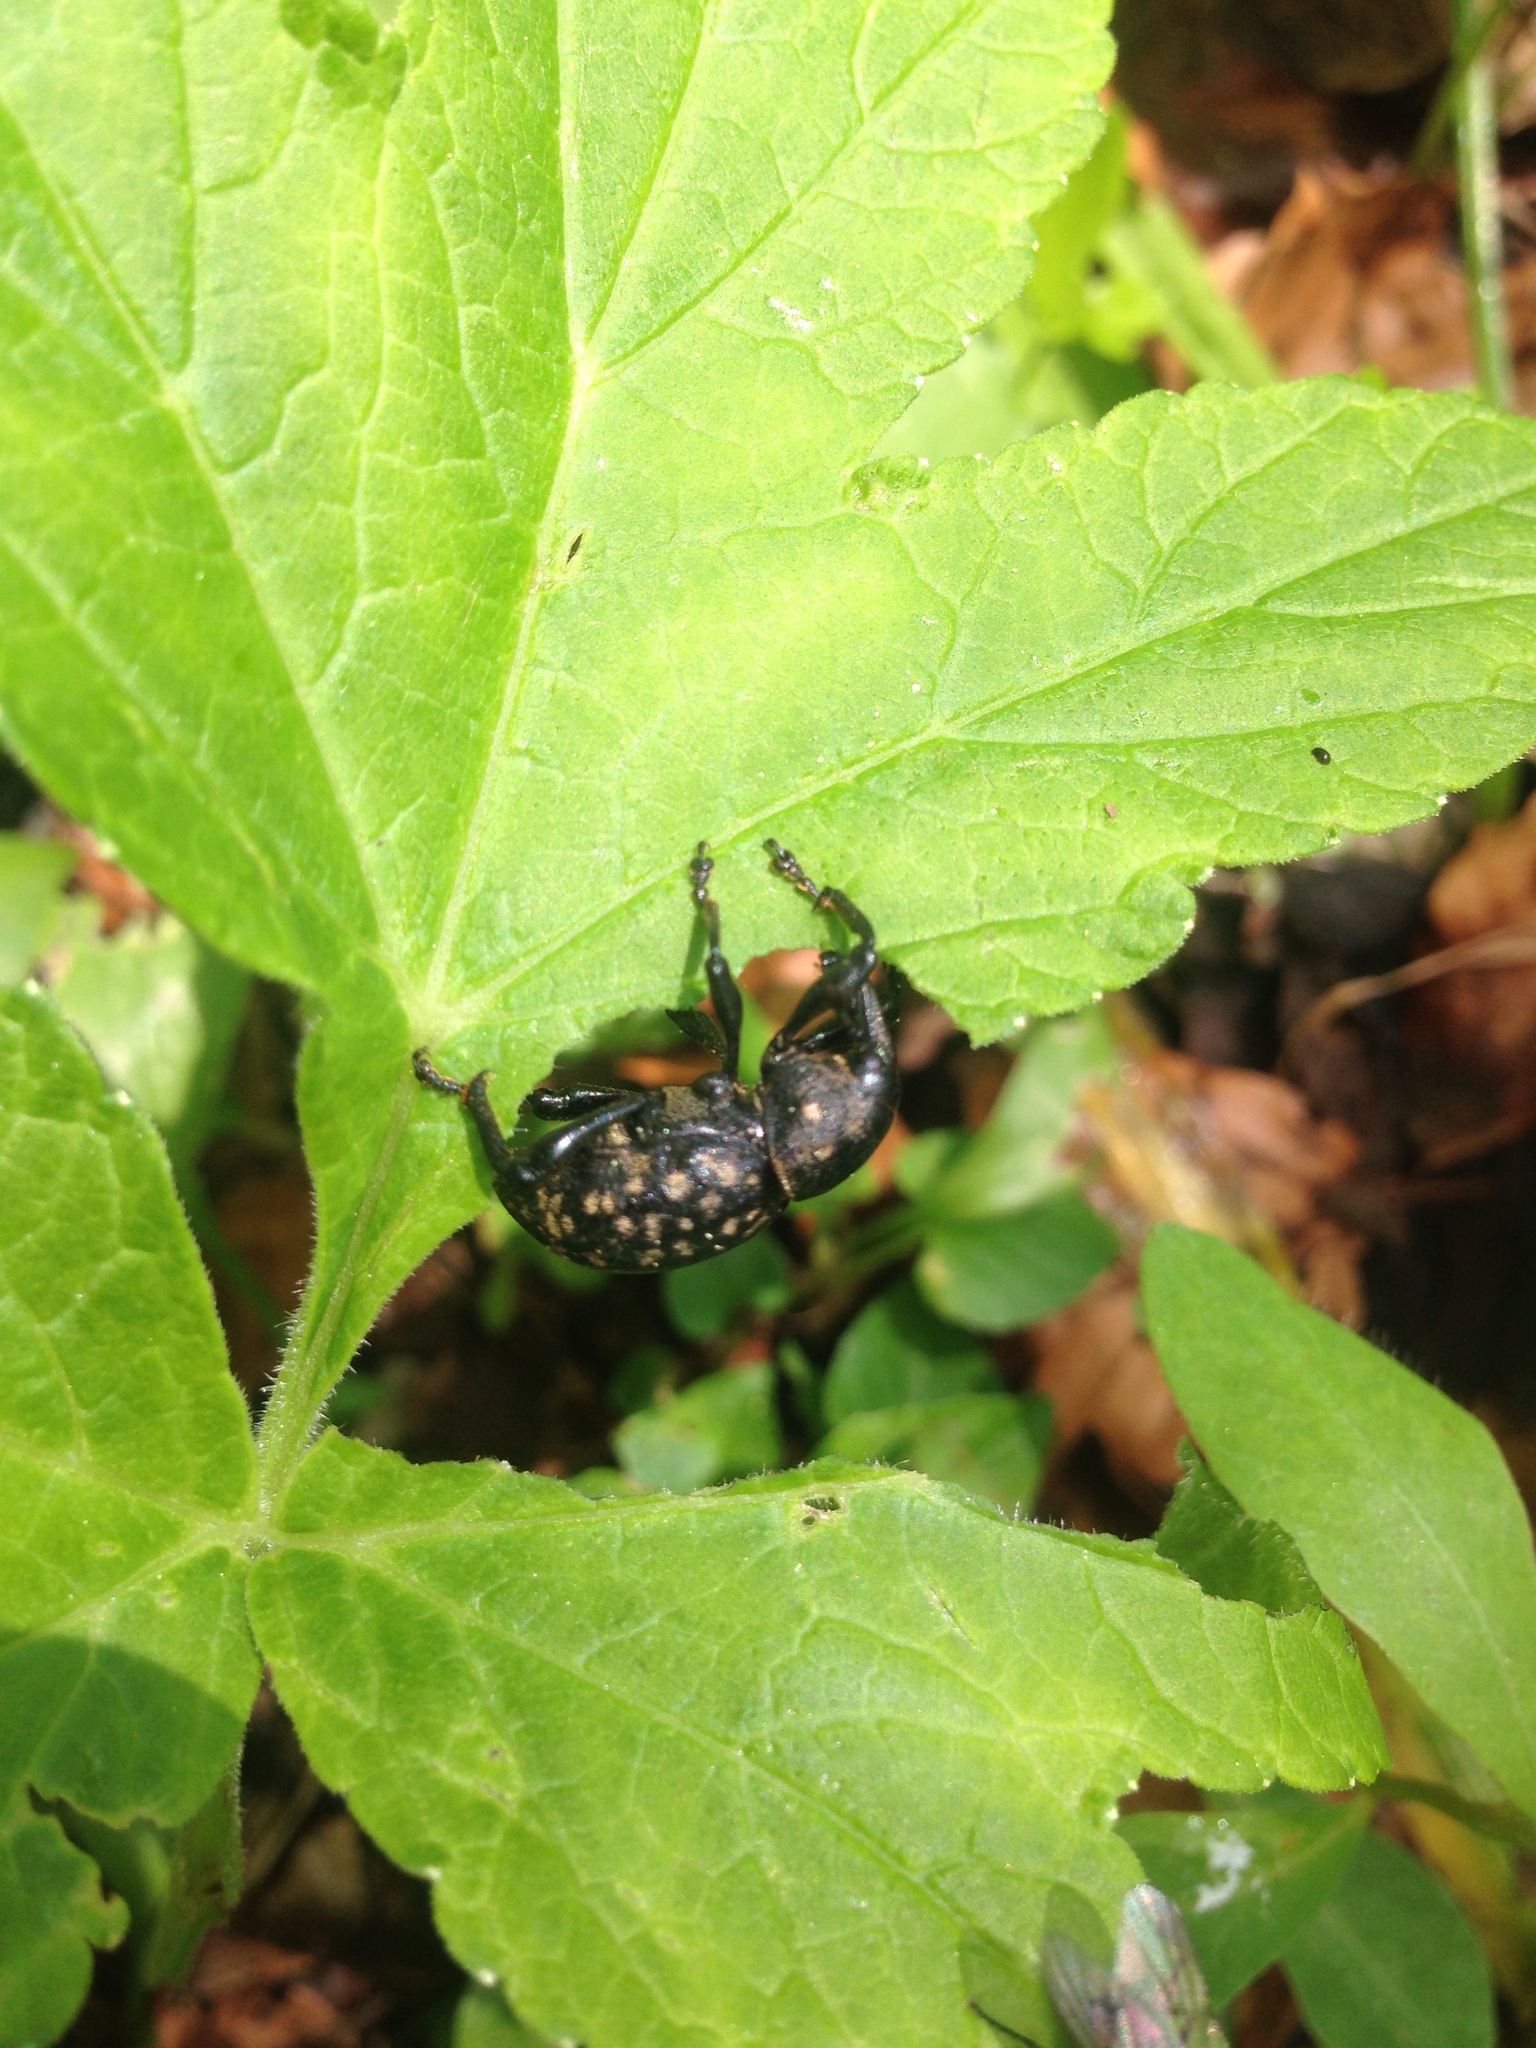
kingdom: Animalia
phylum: Arthropoda
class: Insecta
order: Coleoptera
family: Curculionidae
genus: Liparus
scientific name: Liparus glabrirostris
